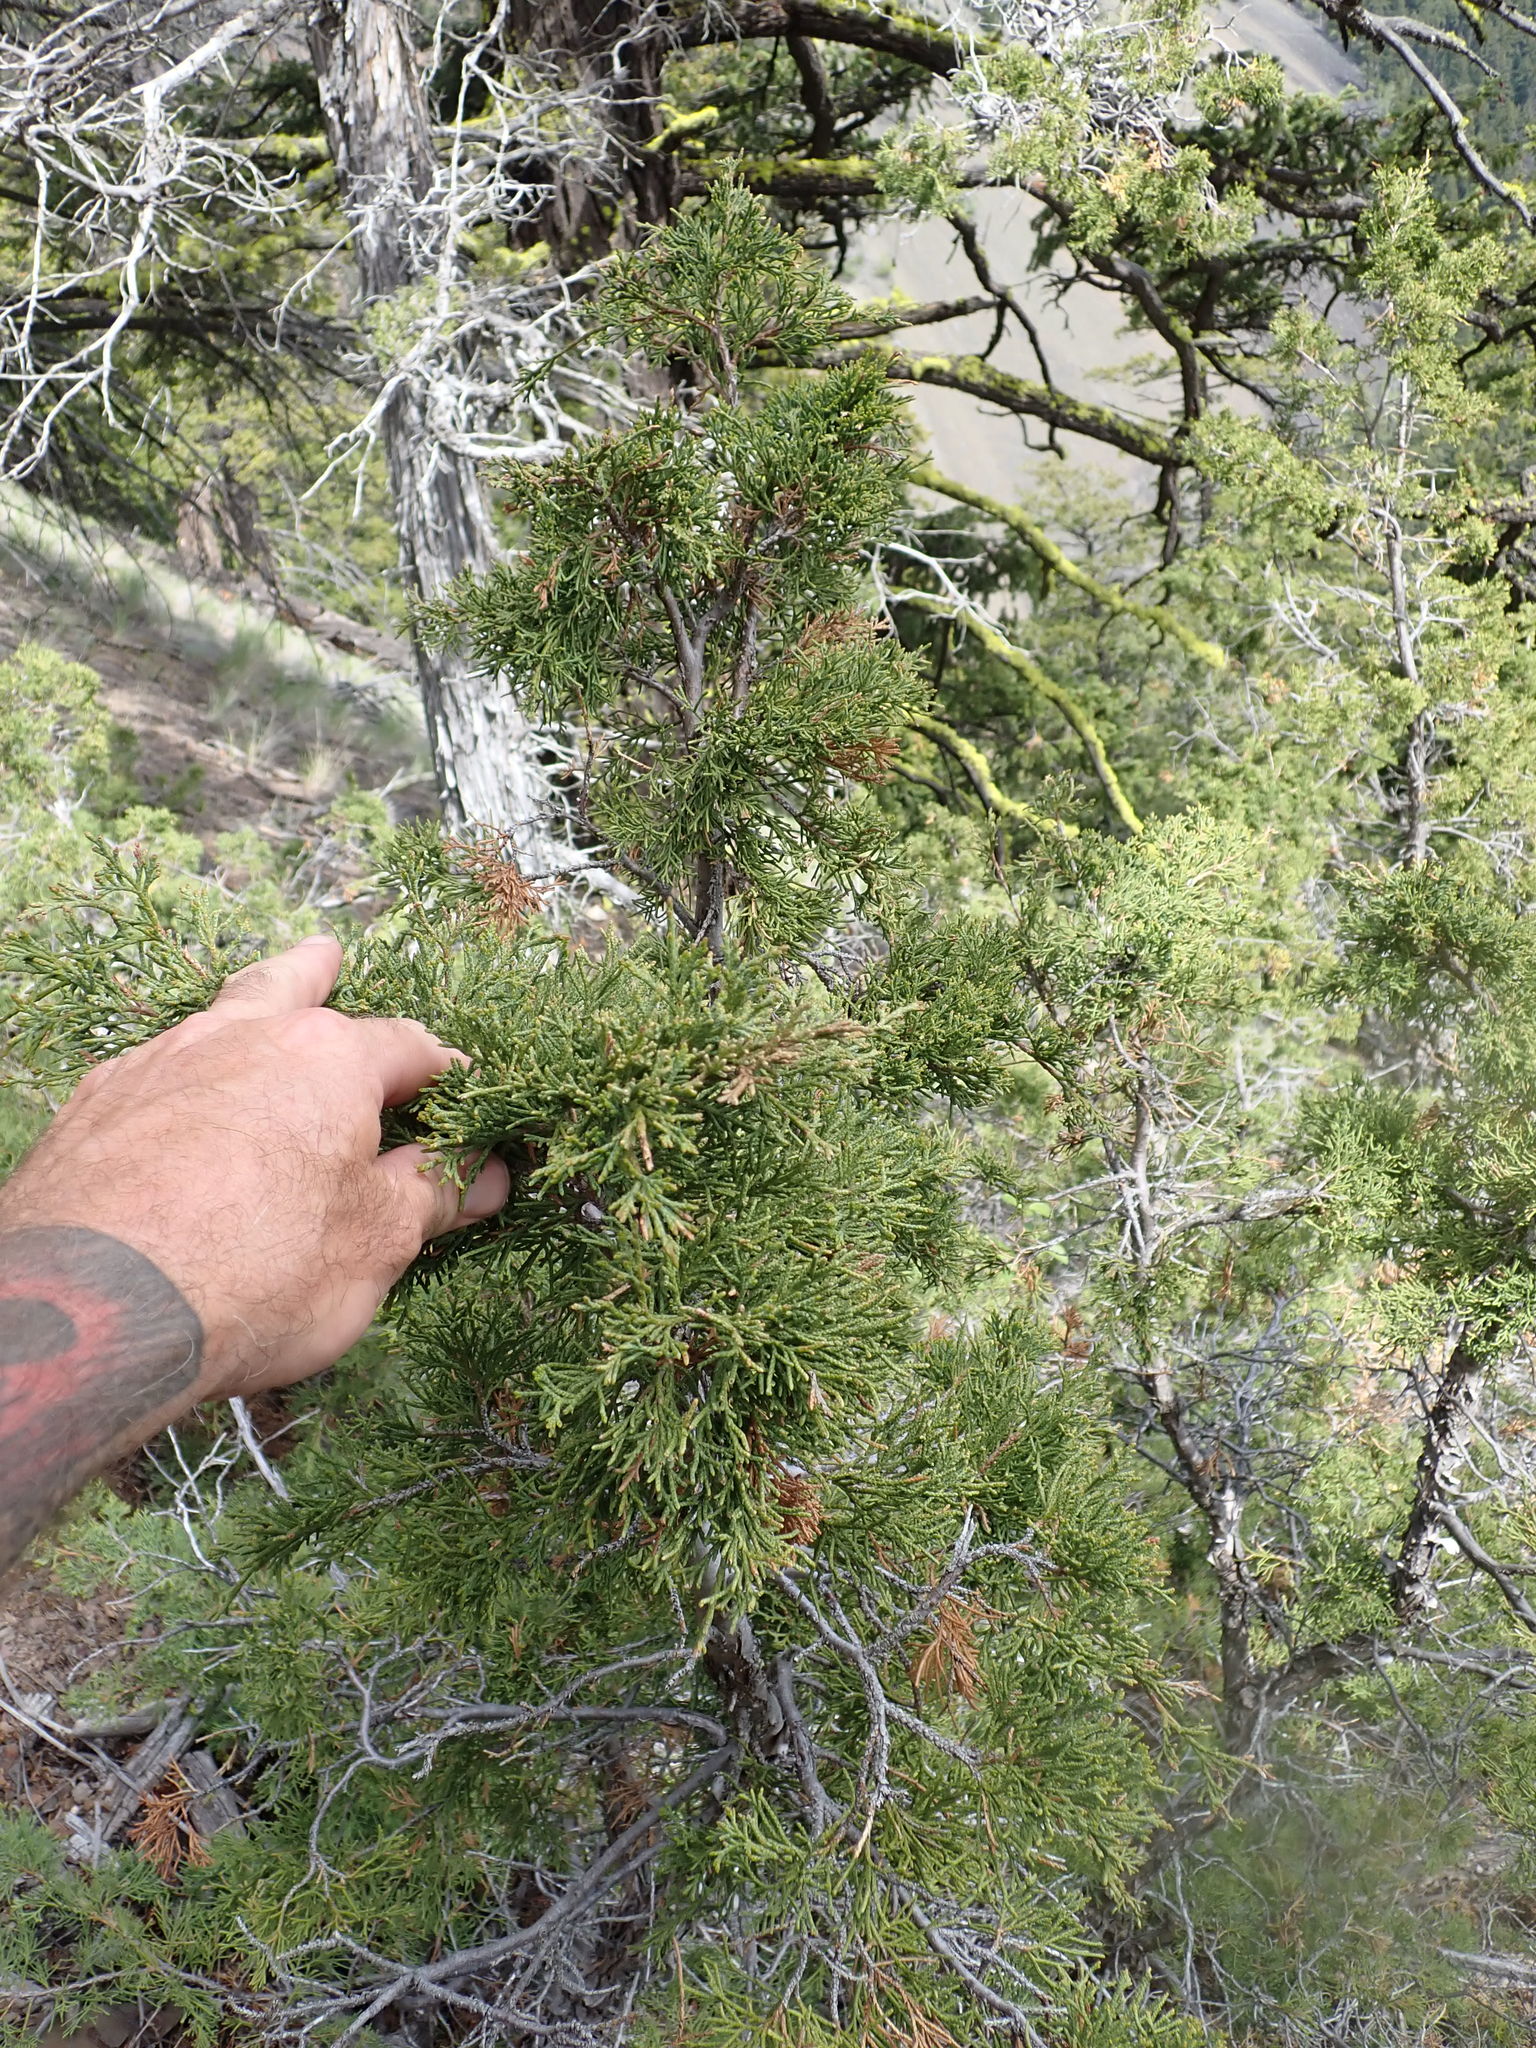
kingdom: Plantae
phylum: Tracheophyta
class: Pinopsida
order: Pinales
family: Cupressaceae
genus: Juniperus
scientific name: Juniperus scopulorum
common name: Rocky mountain juniper
